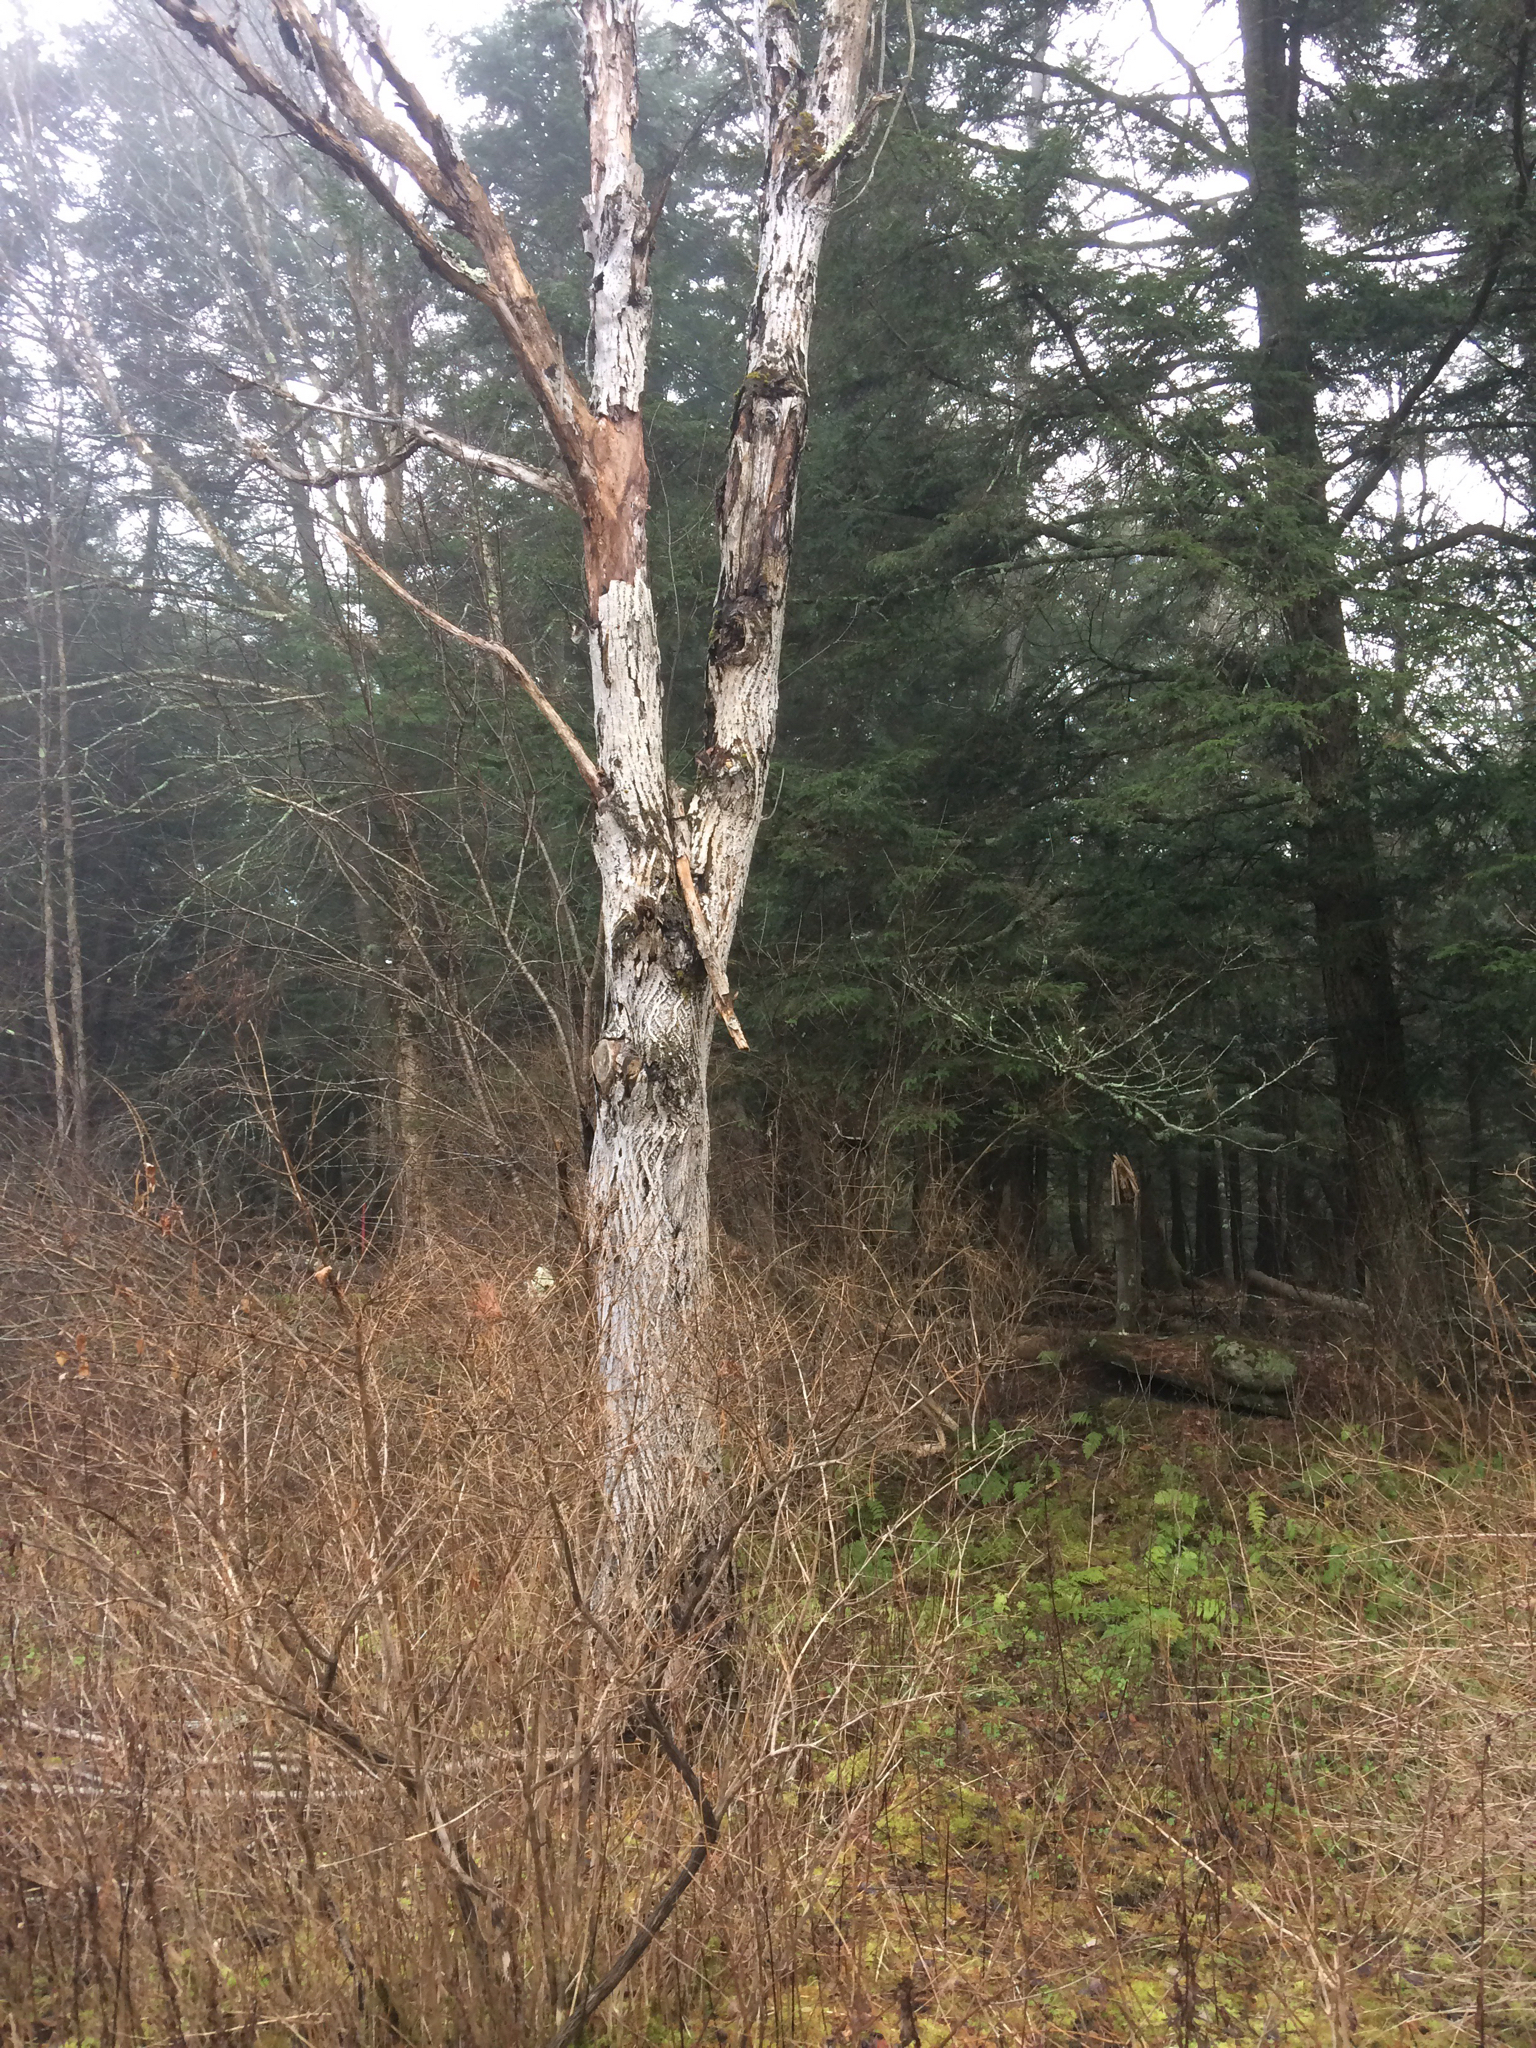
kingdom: Plantae
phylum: Tracheophyta
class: Magnoliopsida
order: Fagales
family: Juglandaceae
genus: Juglans
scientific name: Juglans cinerea
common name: Butternut
